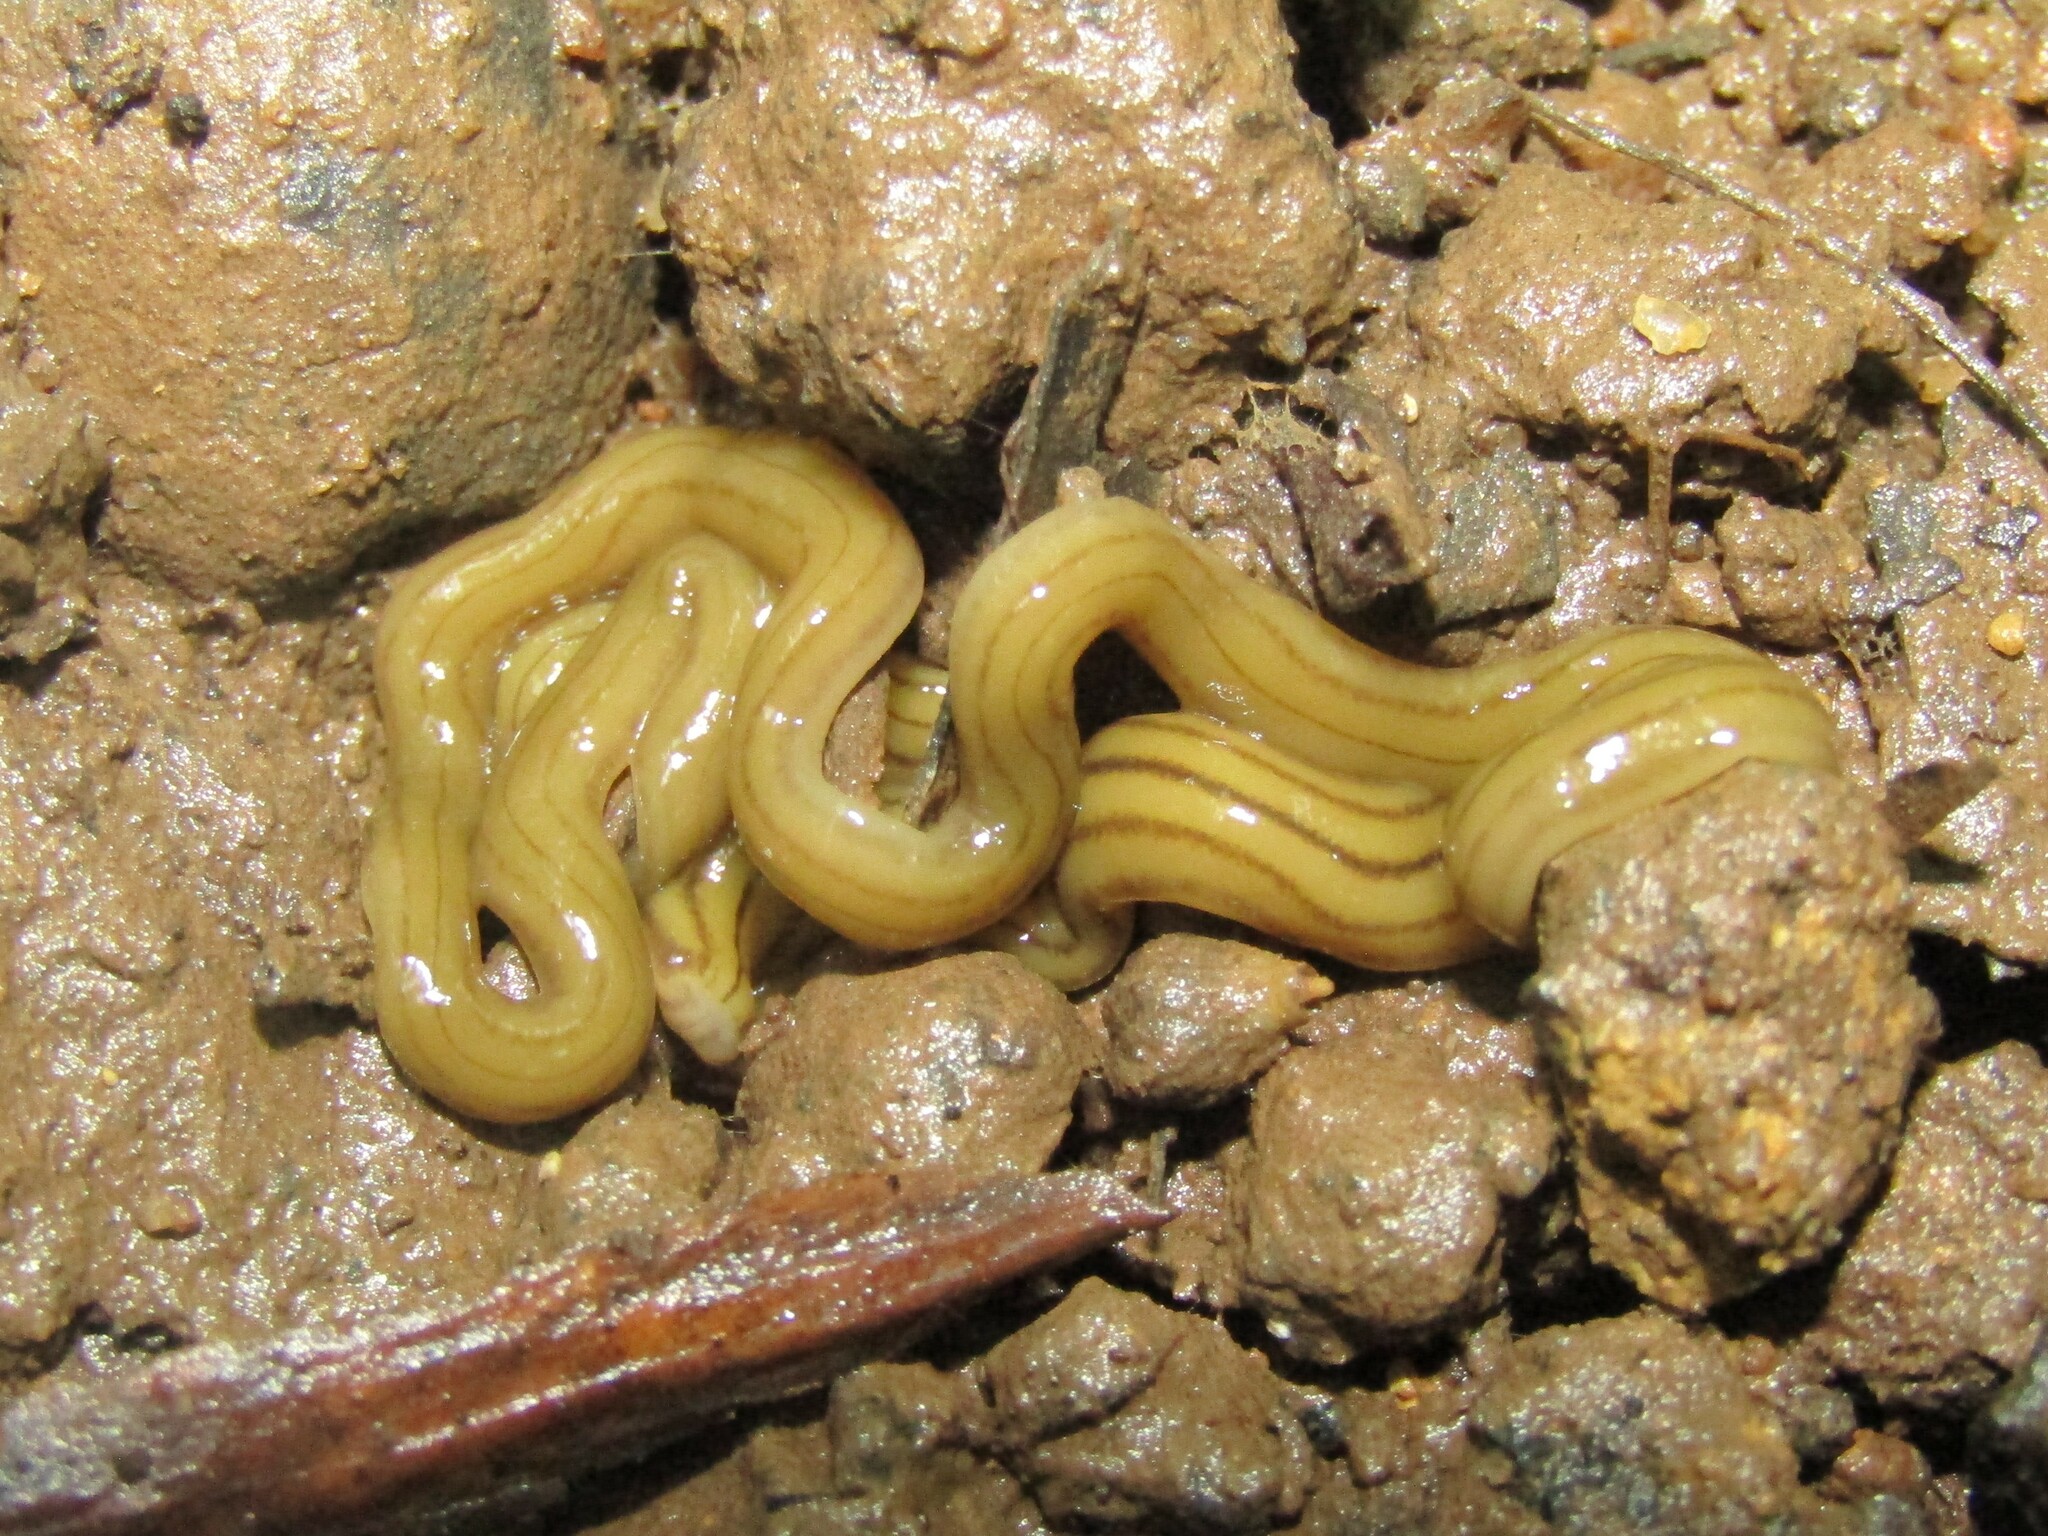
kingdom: Animalia
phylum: Platyhelminthes
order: Tricladida
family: Geoplanidae
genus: Diversibipalium
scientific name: Diversibipalium multilineatum
